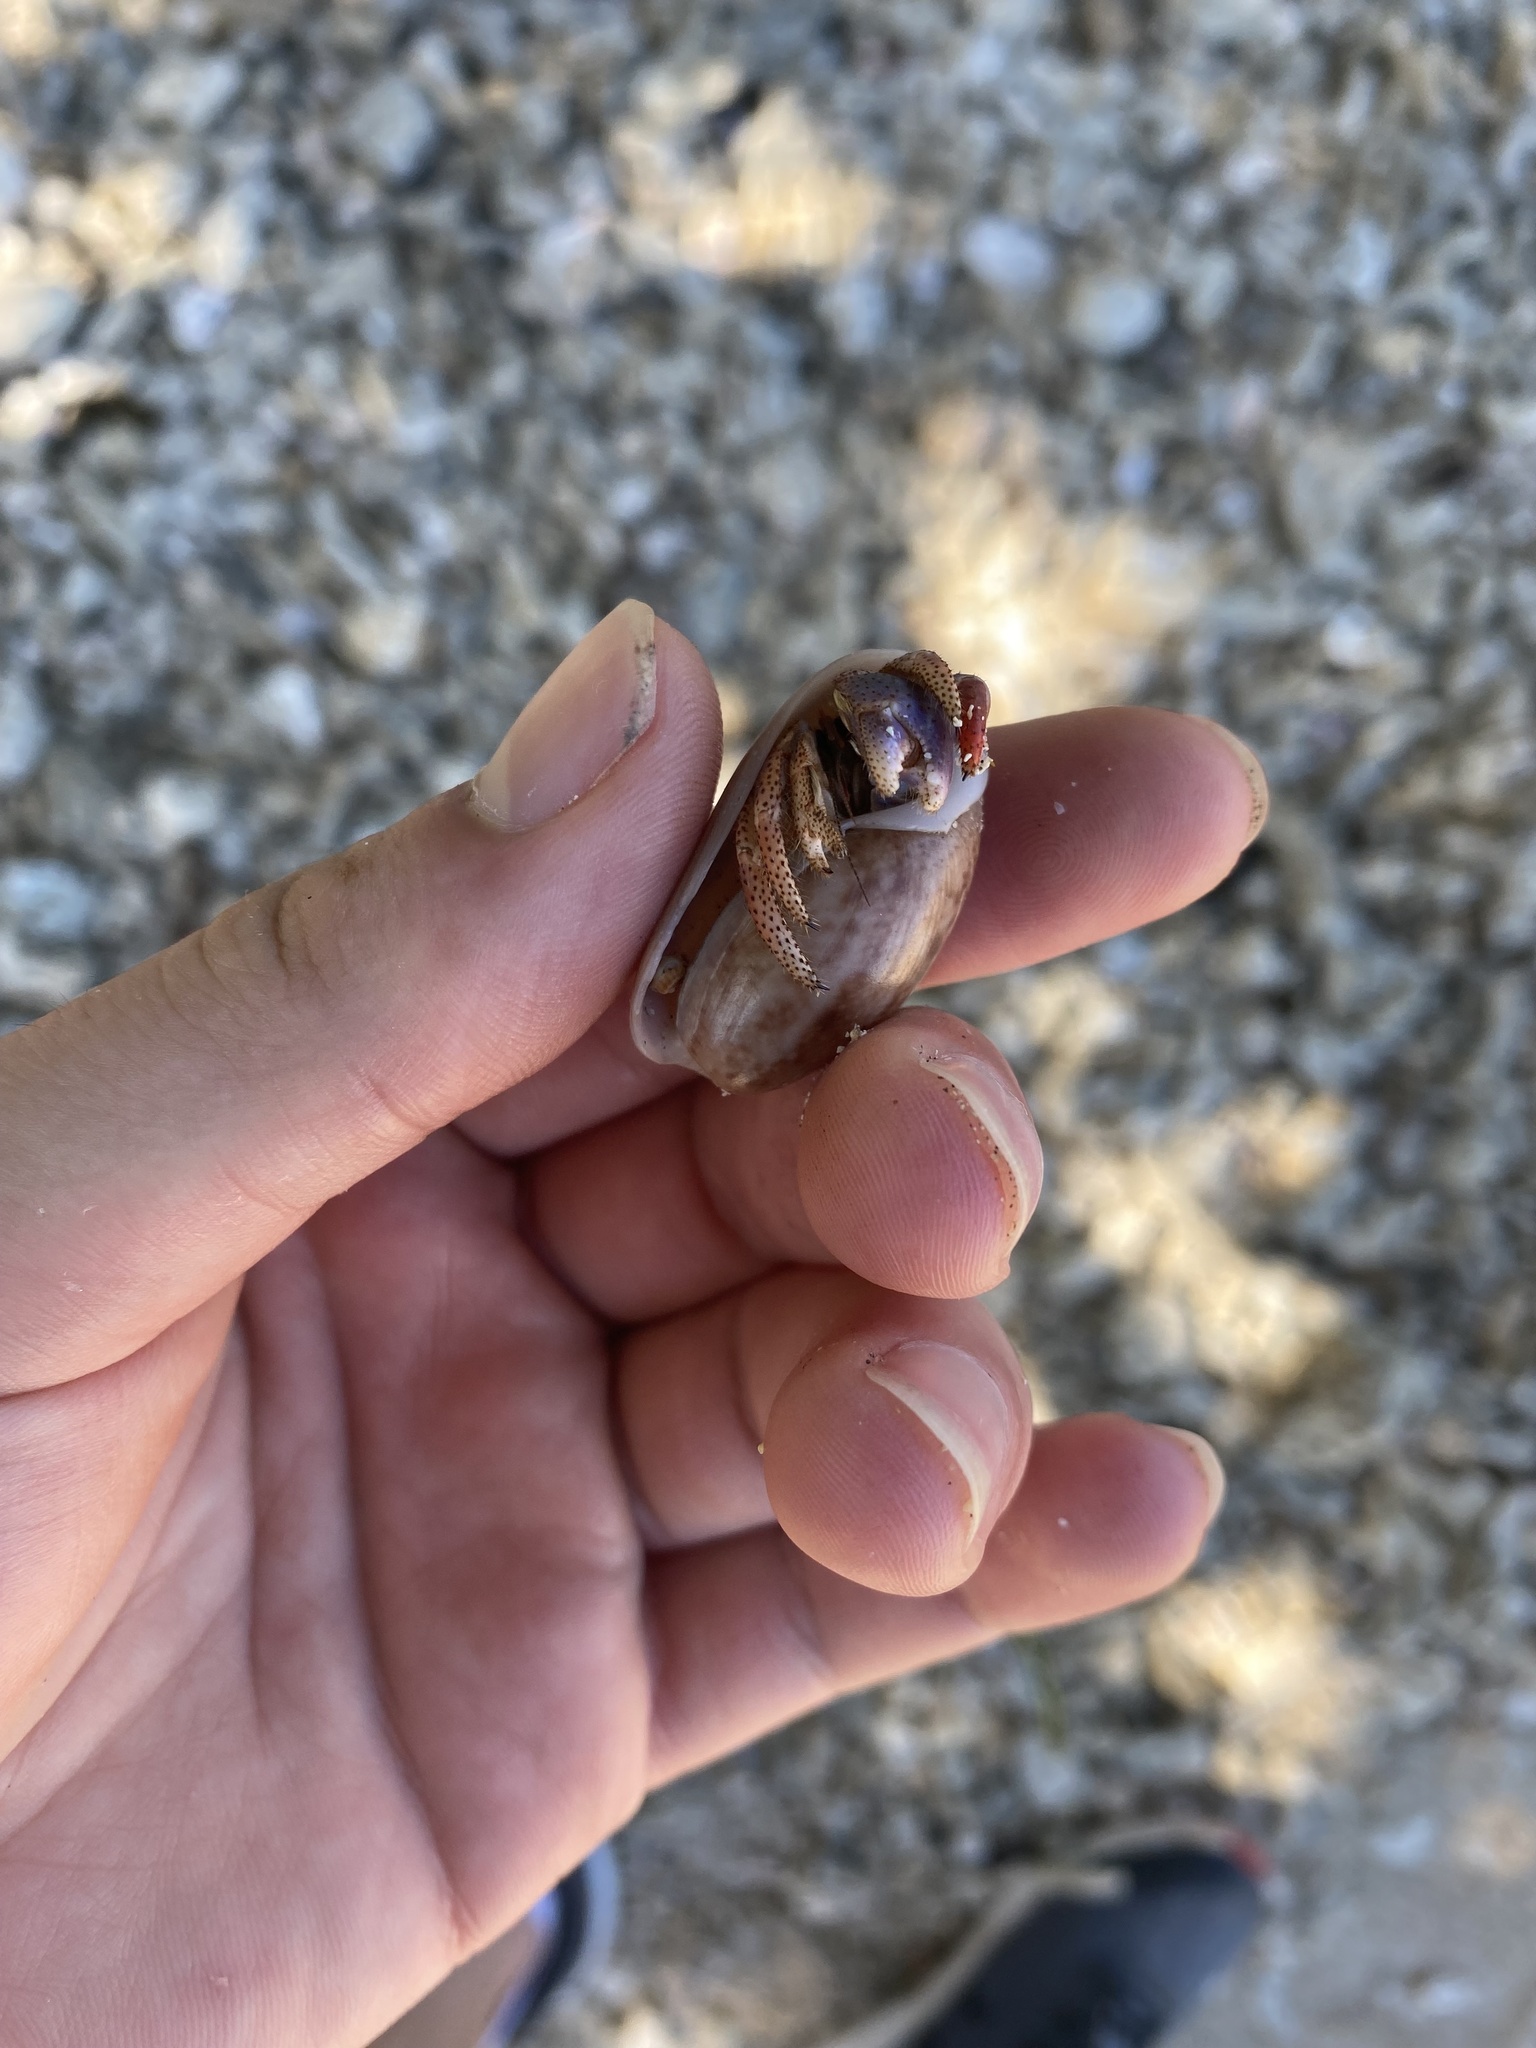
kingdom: Animalia
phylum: Arthropoda
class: Malacostraca
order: Decapoda
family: Coenobitidae
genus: Coenobita
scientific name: Coenobita clypeatus
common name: Caribbean hermit crab
